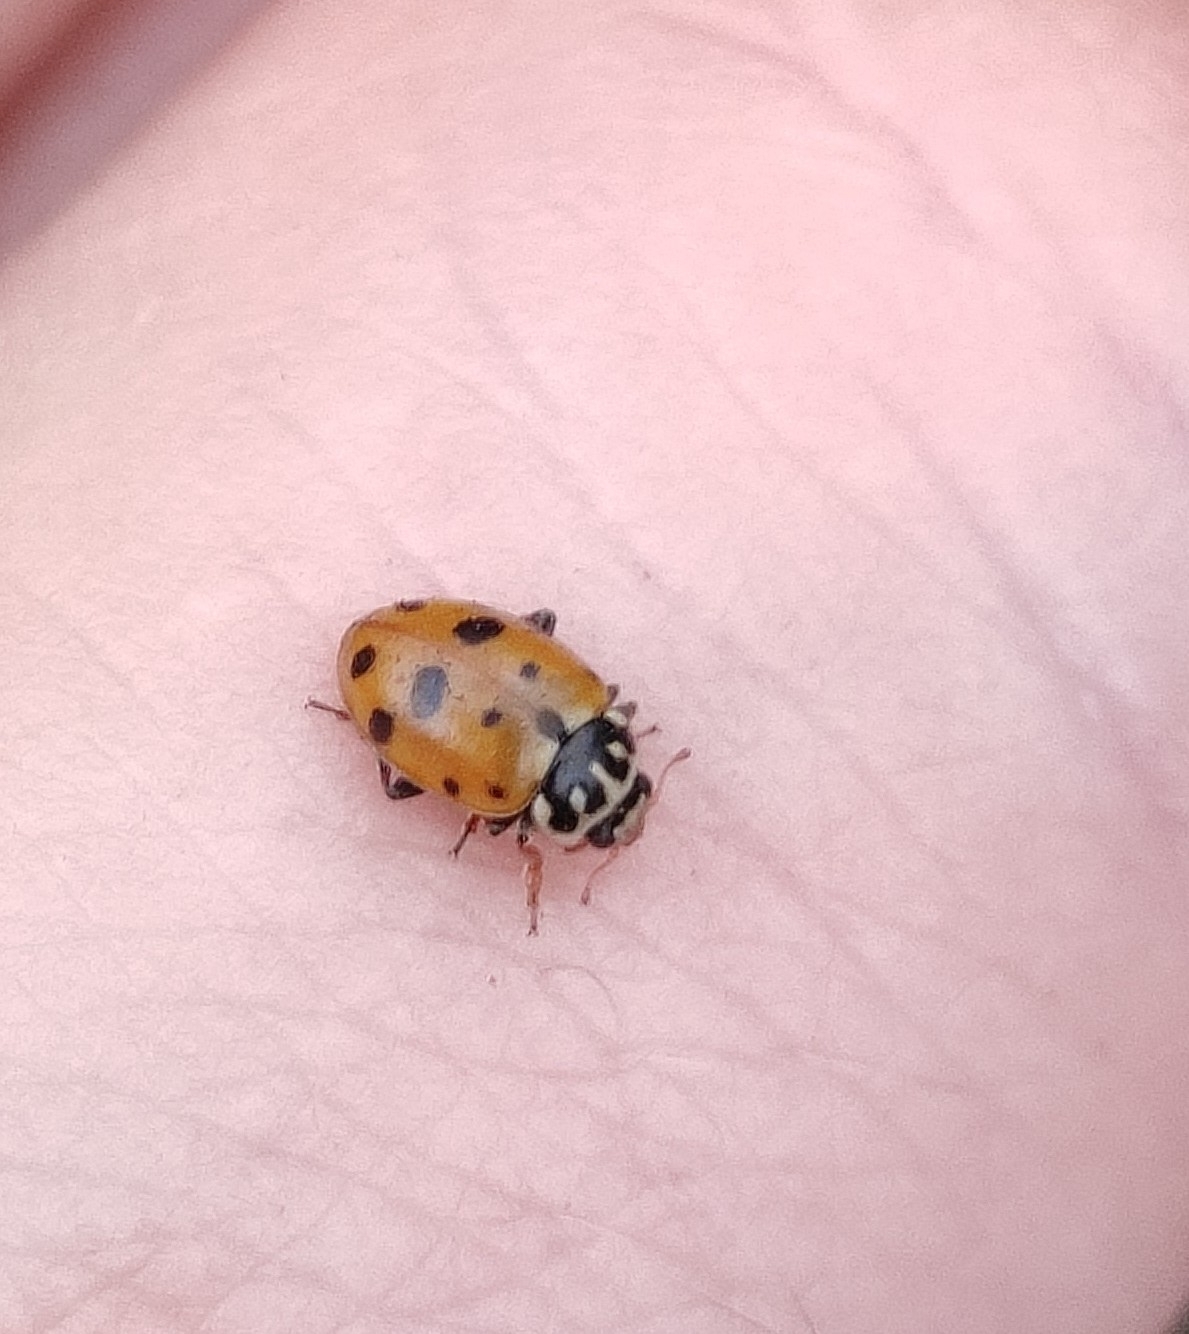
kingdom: Animalia
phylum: Arthropoda
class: Insecta
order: Coleoptera
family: Coccinellidae
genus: Hippodamia
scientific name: Hippodamia variegata
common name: Ladybird beetle
